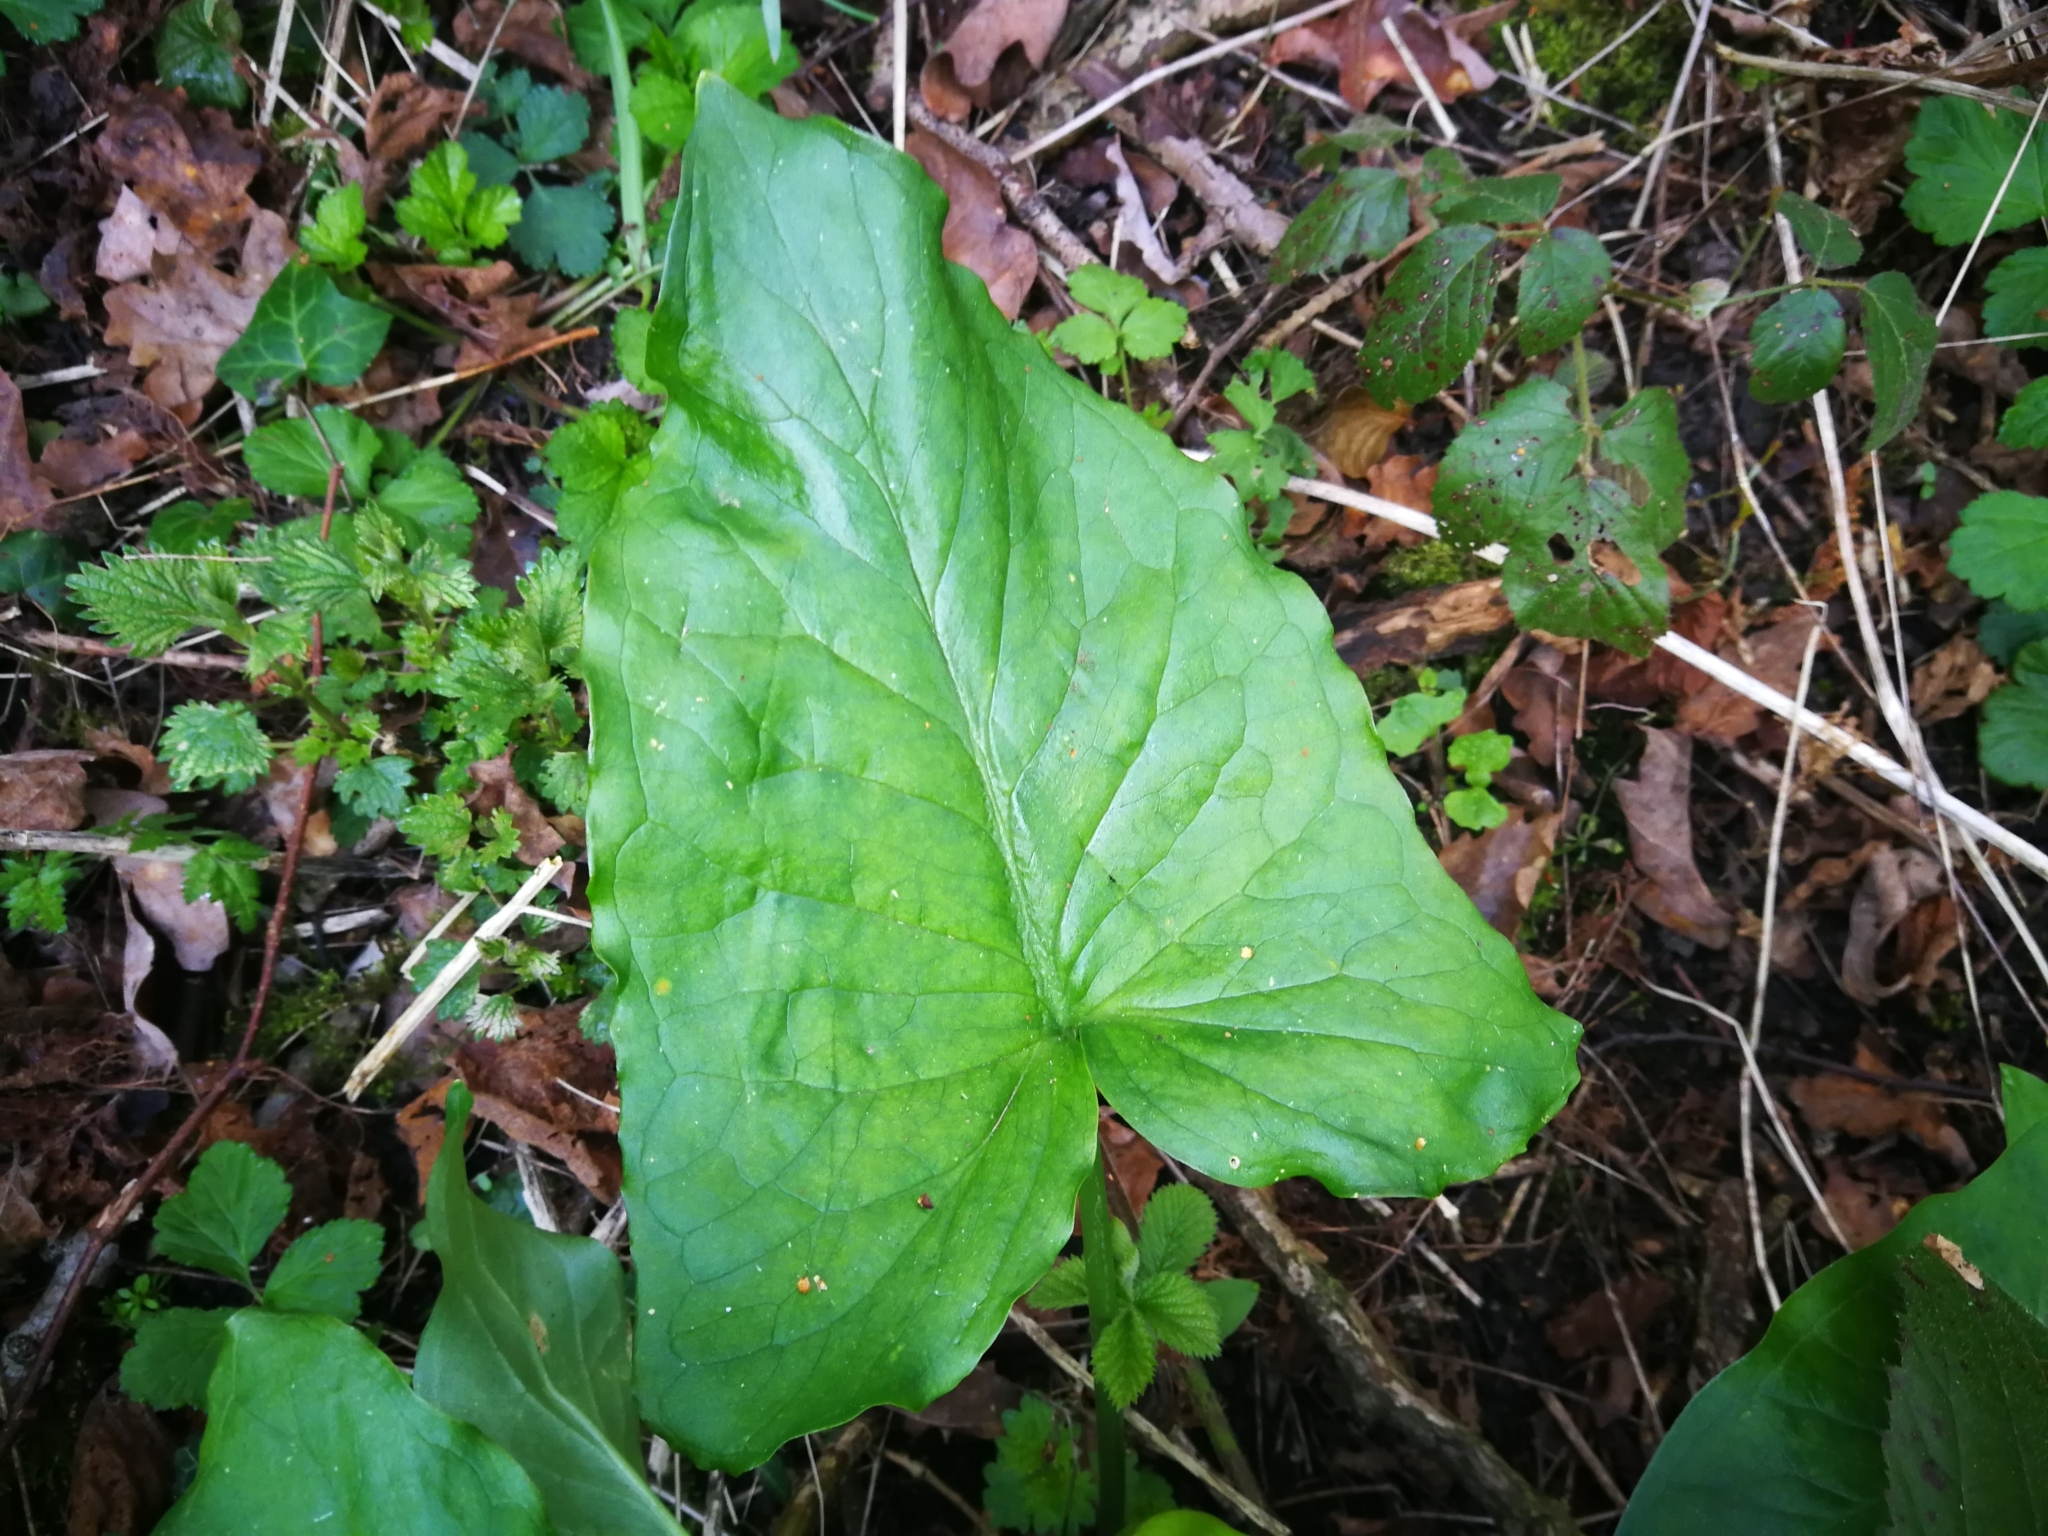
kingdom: Plantae
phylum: Tracheophyta
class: Liliopsida
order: Alismatales
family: Araceae
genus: Arum
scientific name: Arum maculatum
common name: Lords-and-ladies
